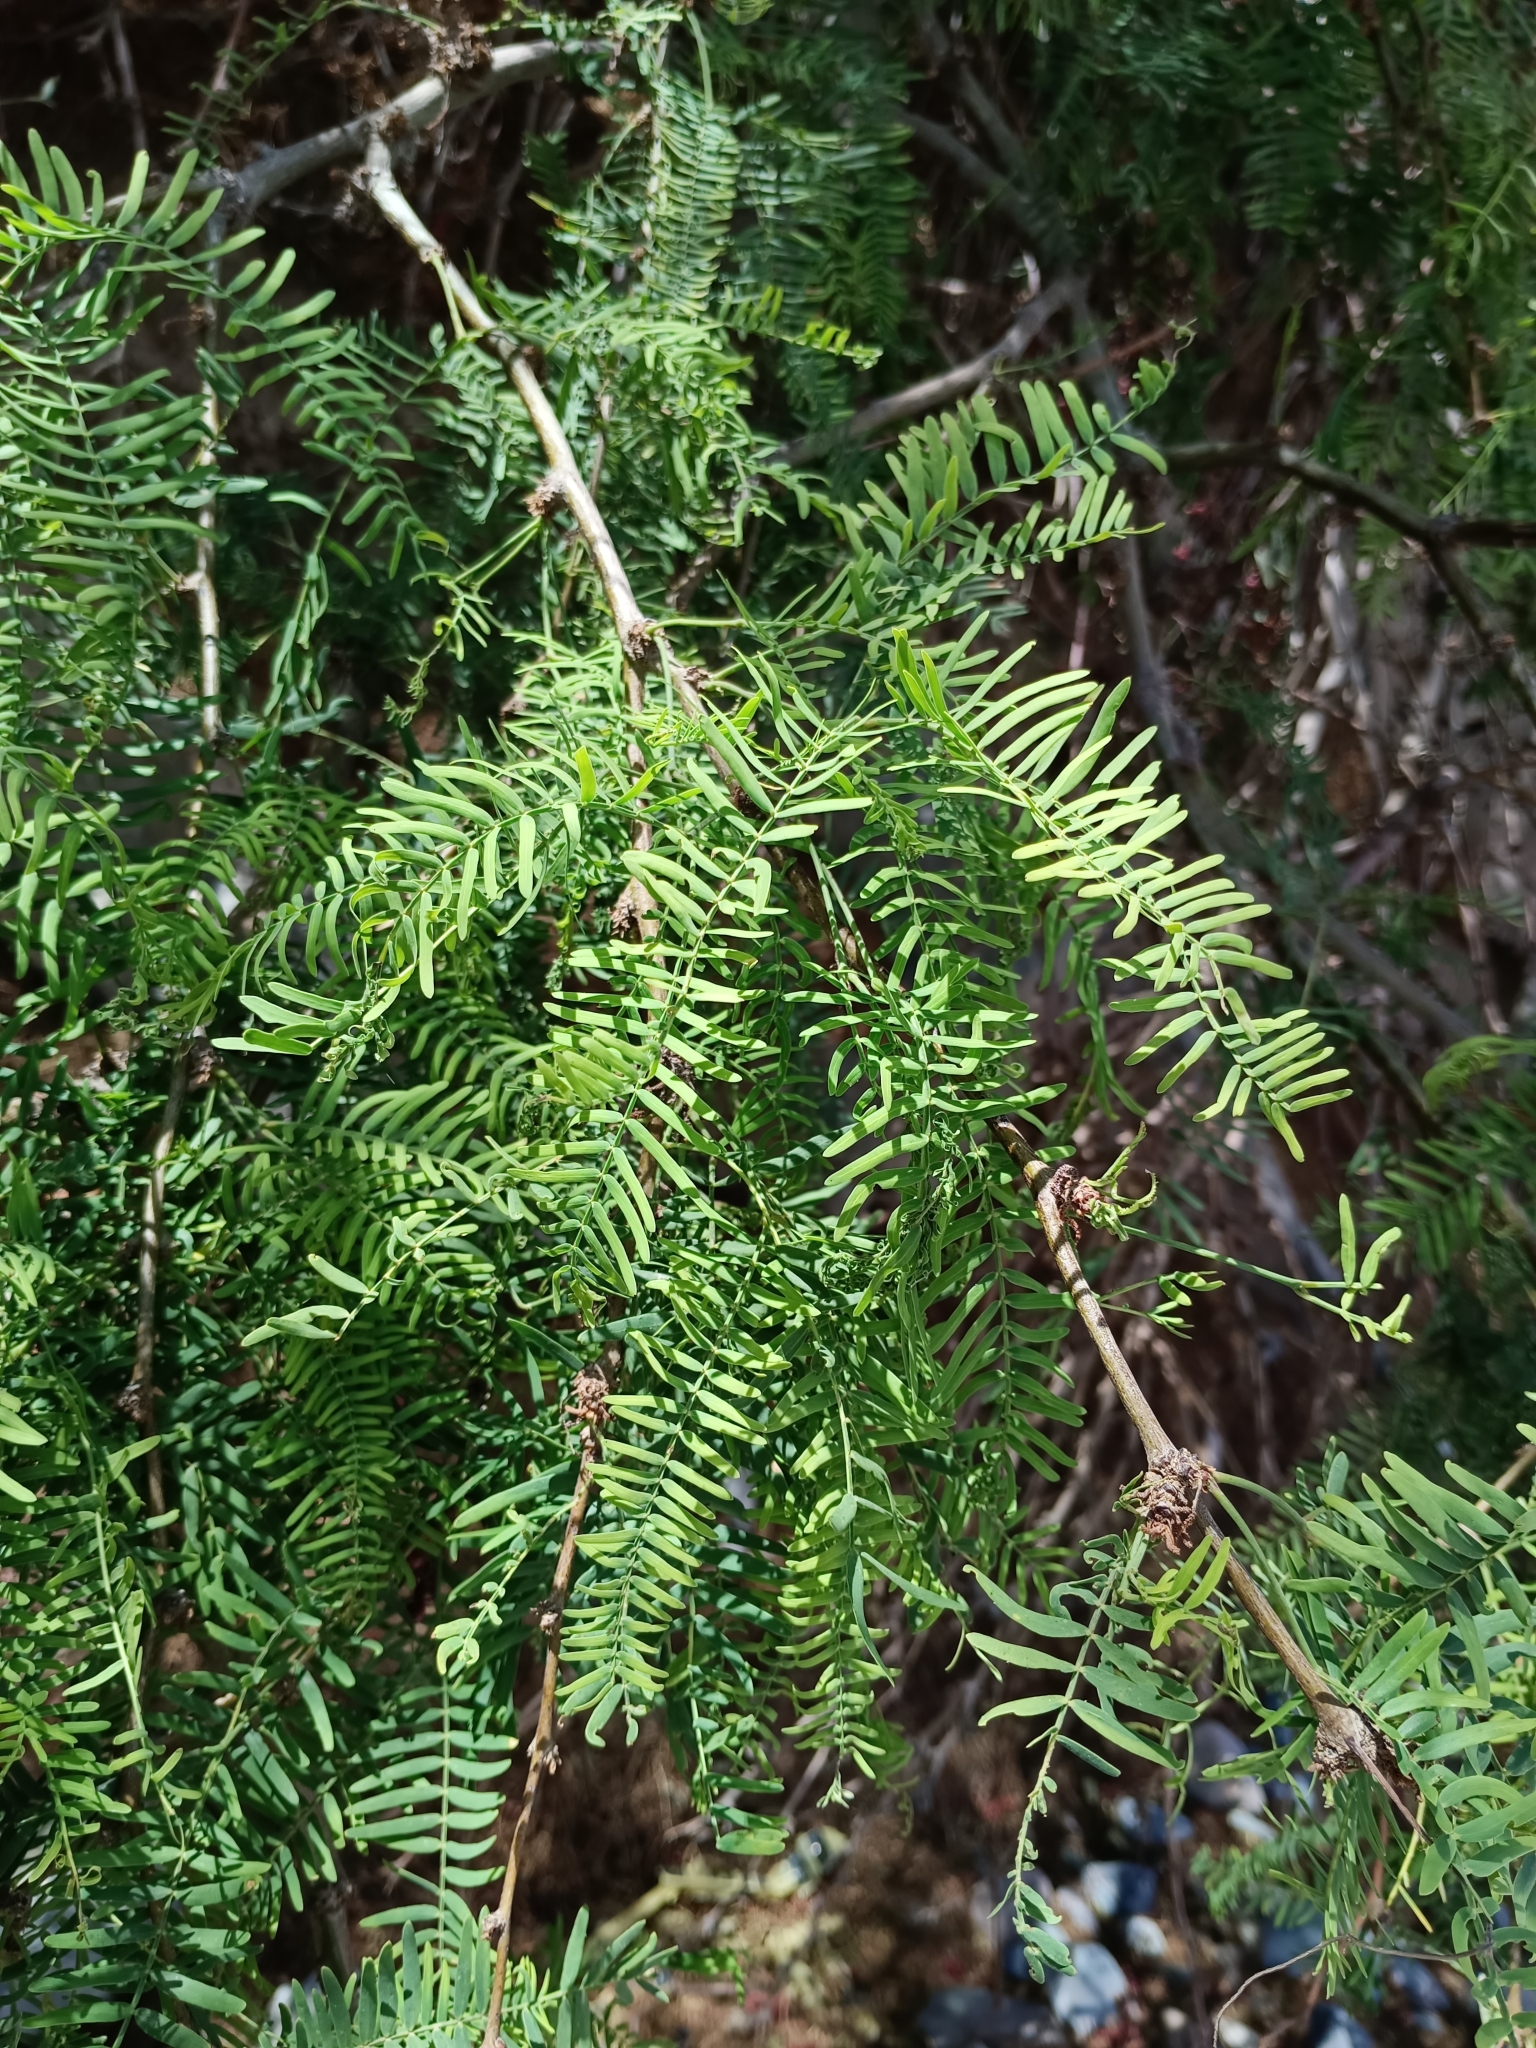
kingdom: Plantae
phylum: Tracheophyta
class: Magnoliopsida
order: Fabales
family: Fabaceae
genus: Prosopis
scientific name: Prosopis alba
